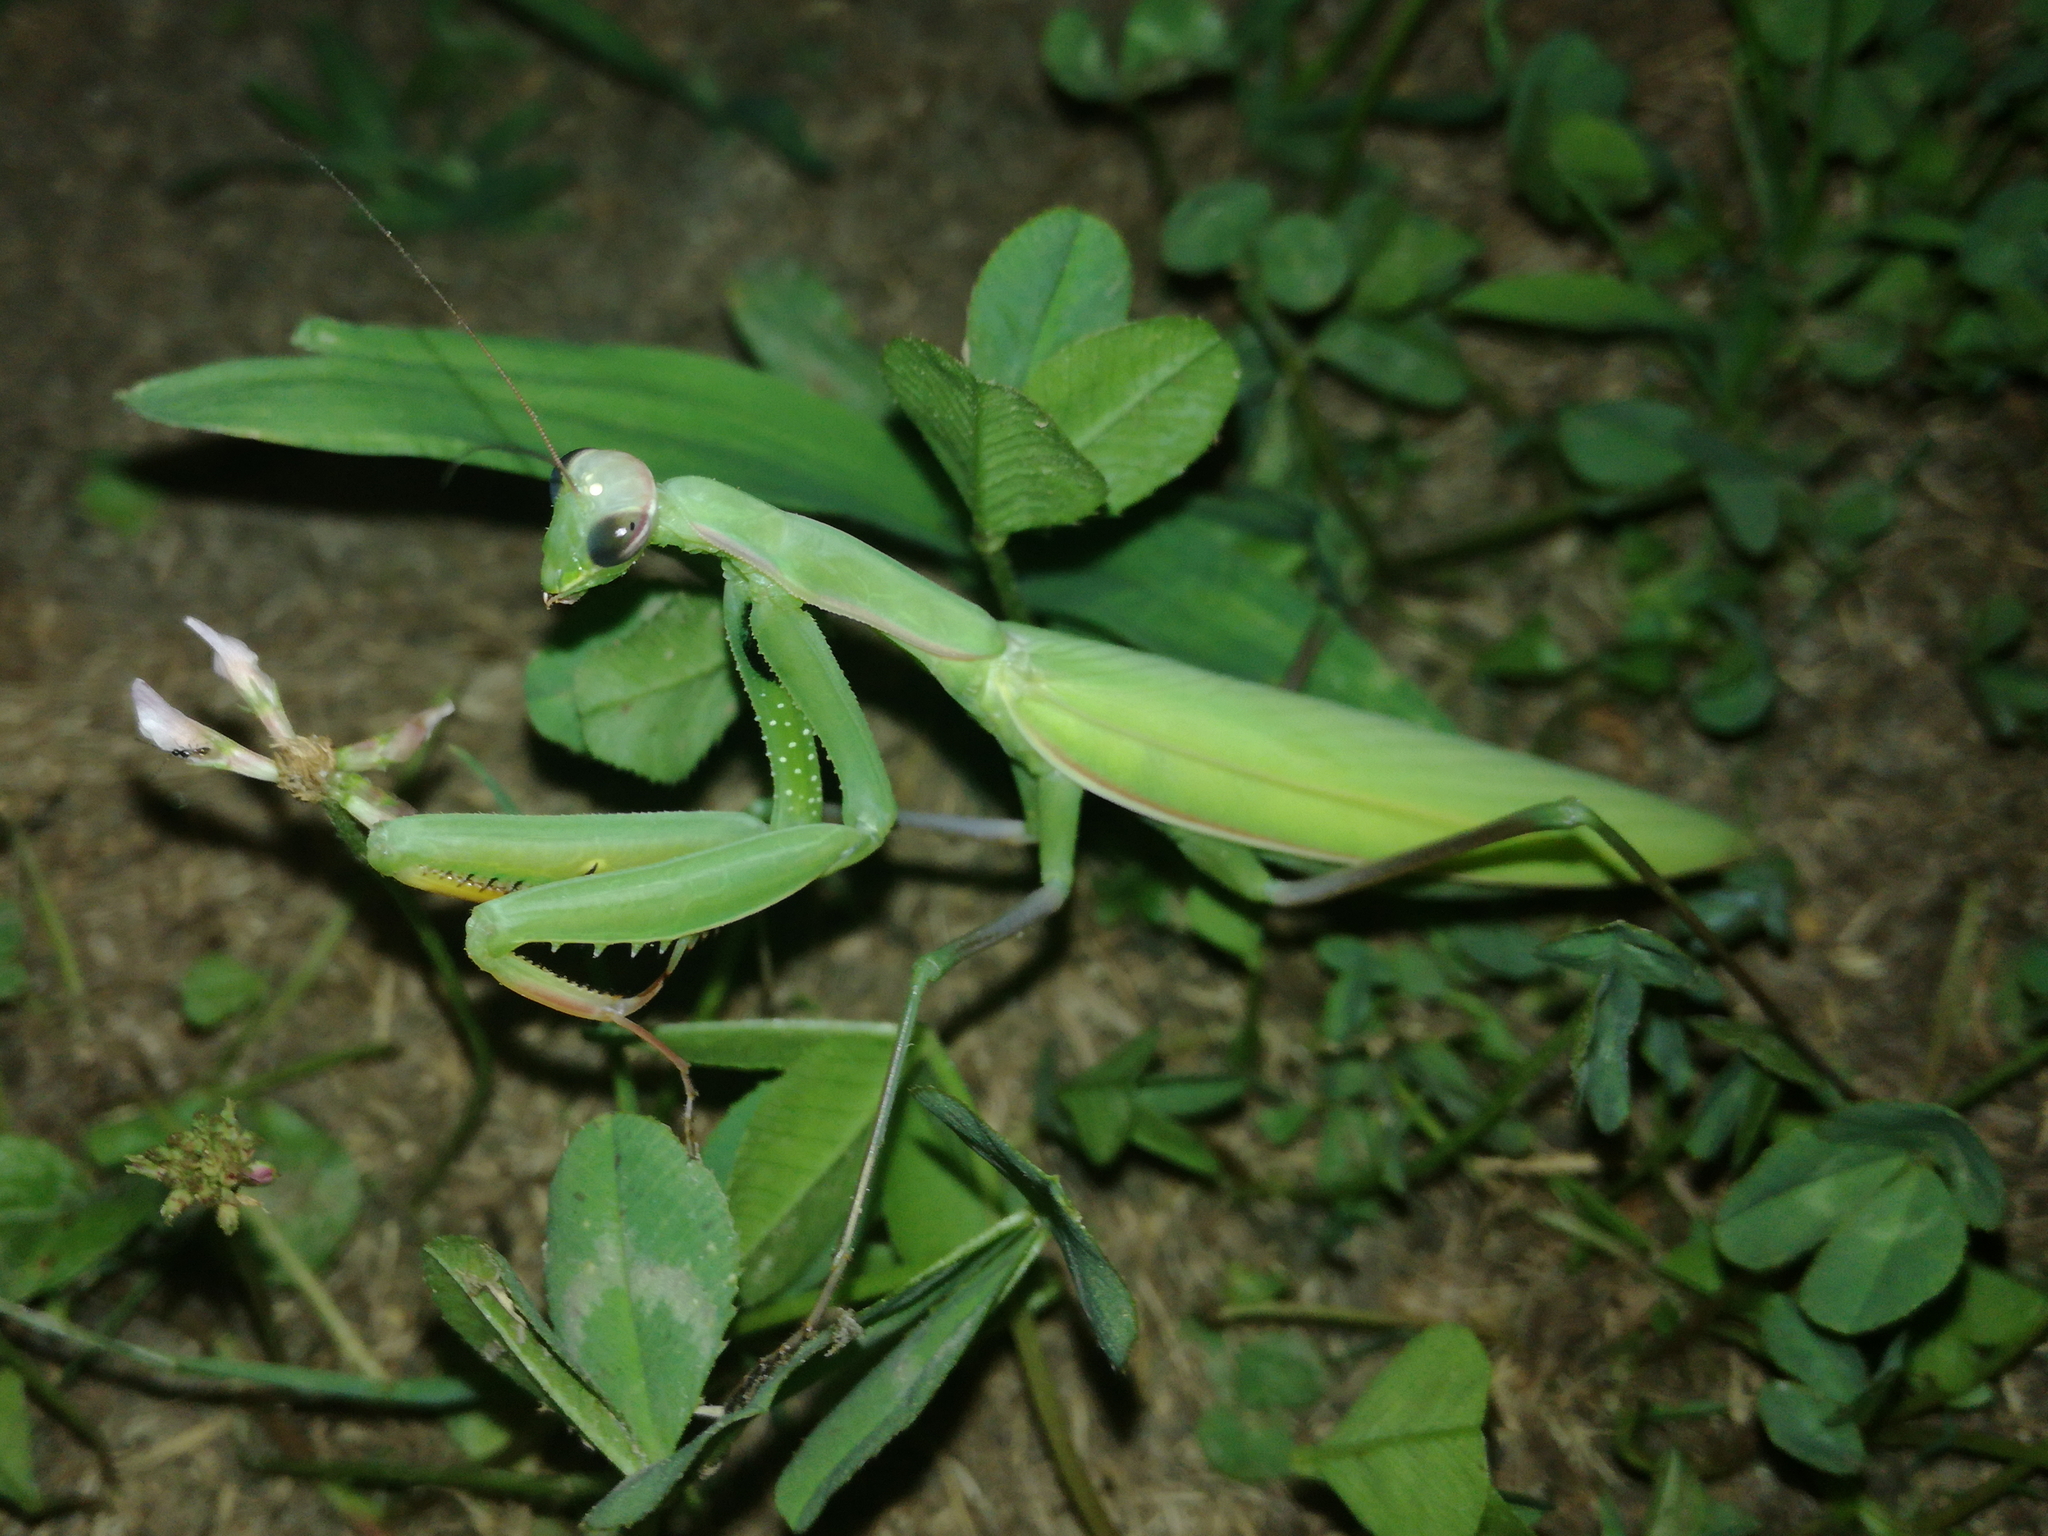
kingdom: Animalia
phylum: Arthropoda
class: Insecta
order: Mantodea
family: Mantidae
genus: Mantis
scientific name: Mantis religiosa
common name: Praying mantis
